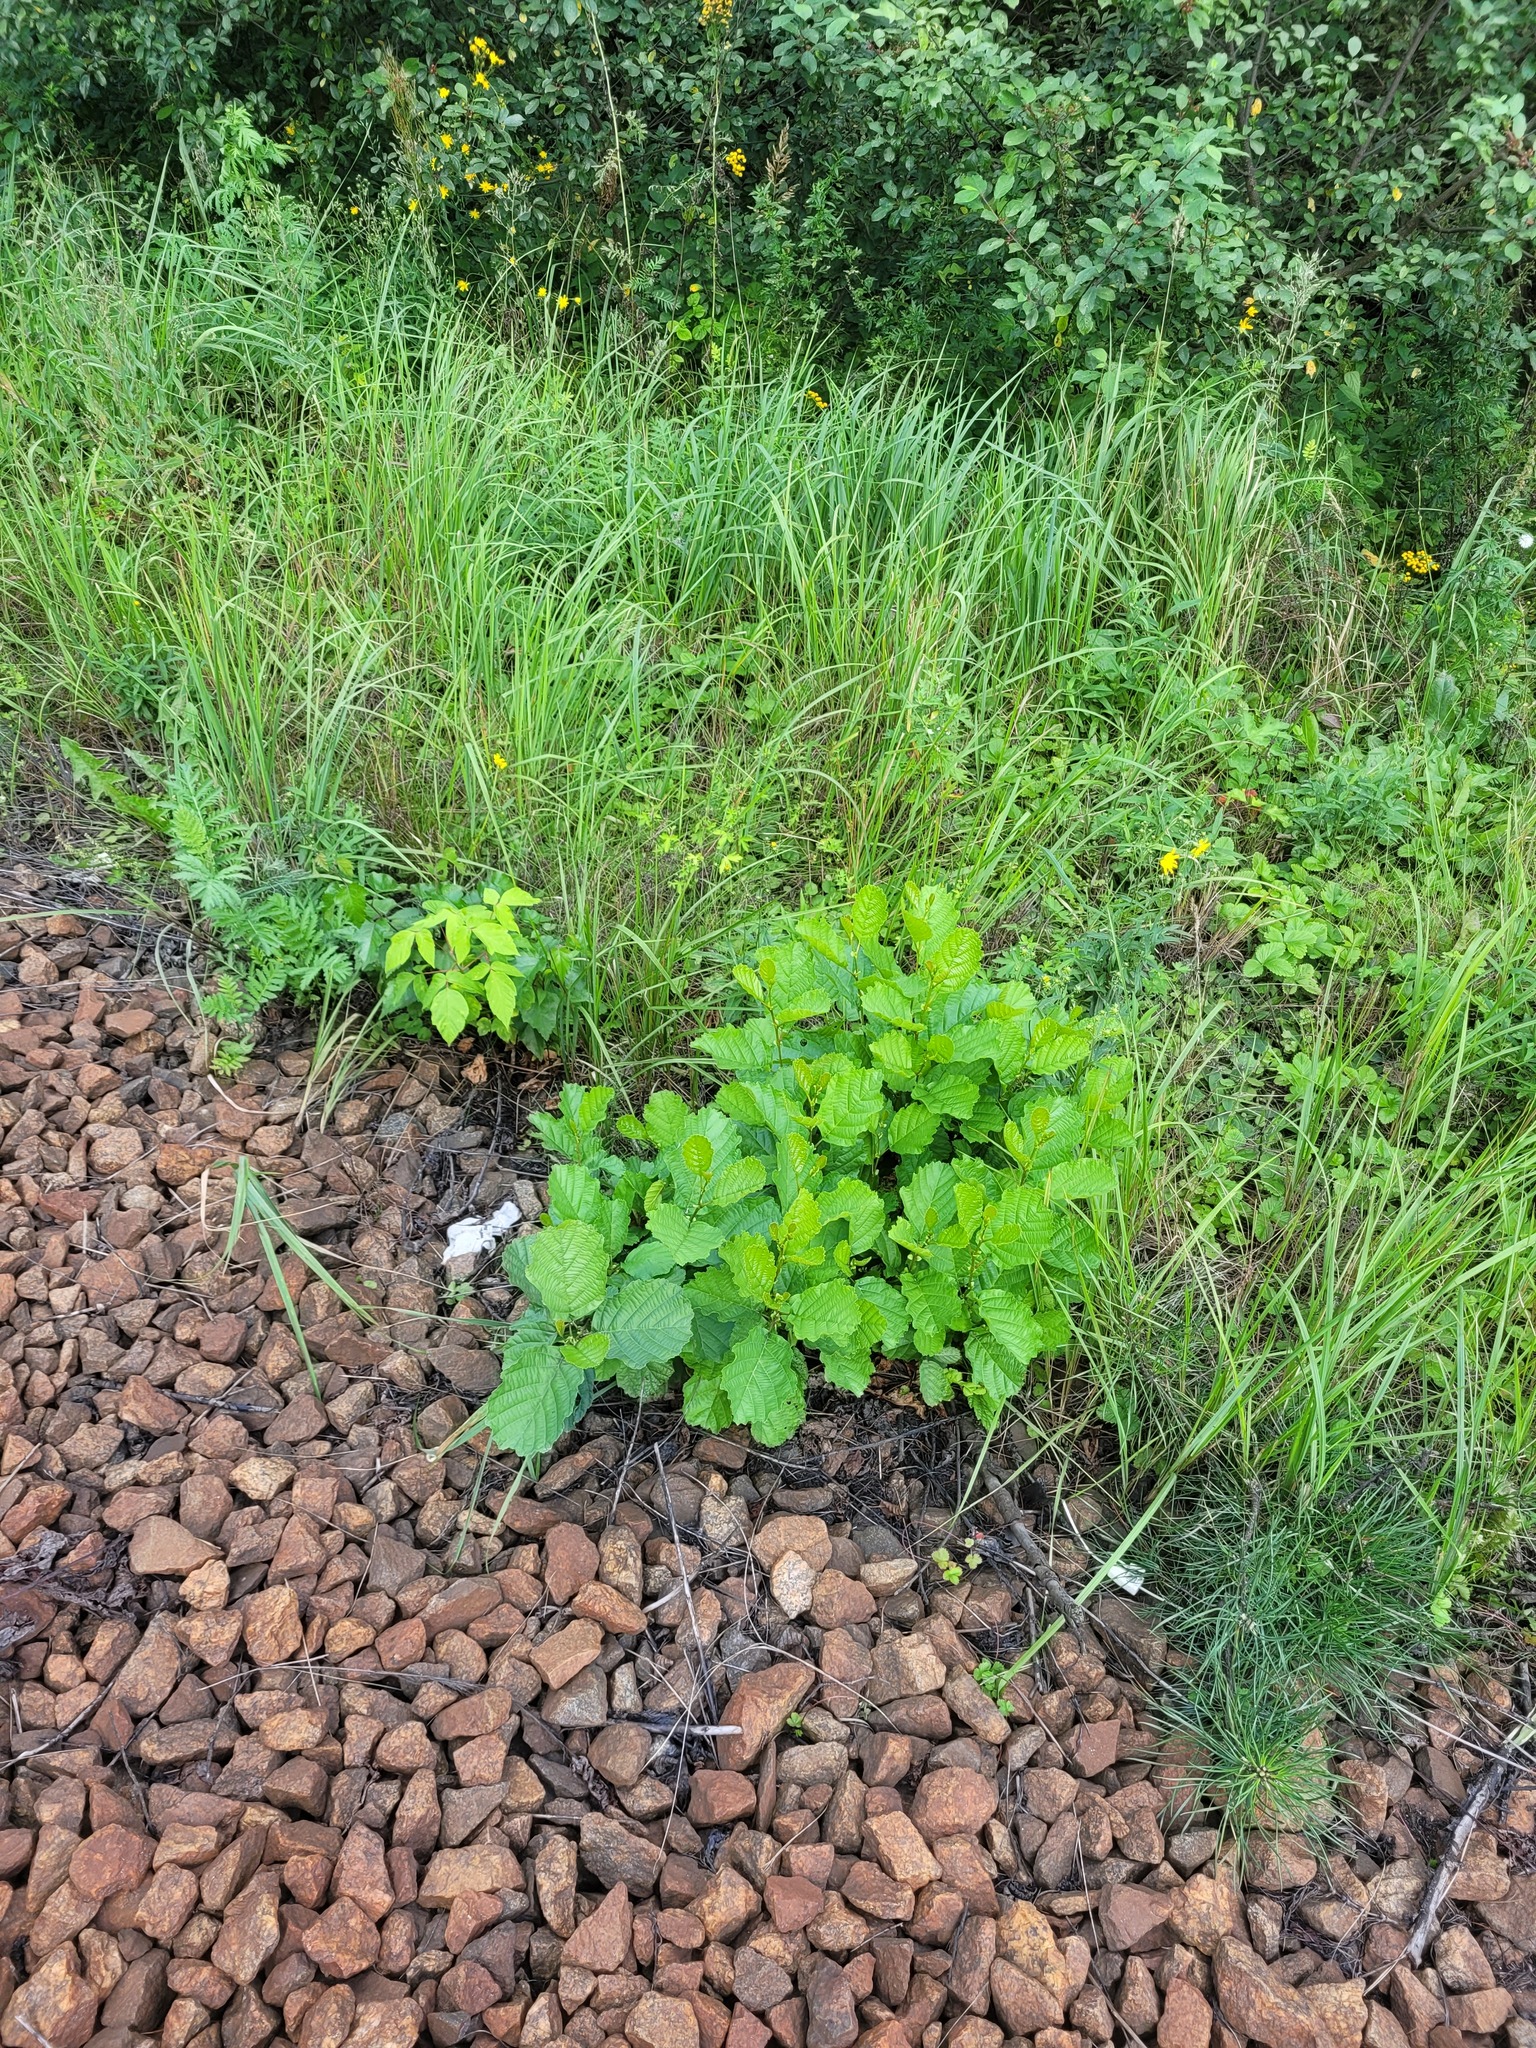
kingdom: Plantae
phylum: Tracheophyta
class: Magnoliopsida
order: Fagales
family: Betulaceae
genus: Alnus
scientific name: Alnus glutinosa
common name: Black alder
